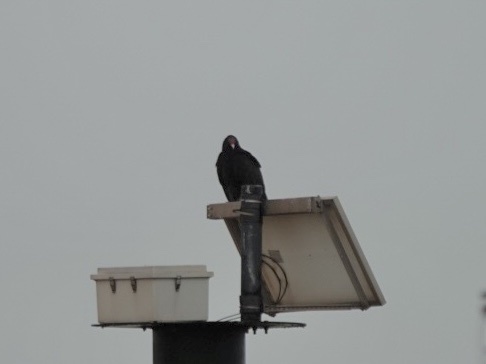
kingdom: Animalia
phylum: Chordata
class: Aves
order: Accipitriformes
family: Cathartidae
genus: Cathartes
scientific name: Cathartes aura
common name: Turkey vulture
